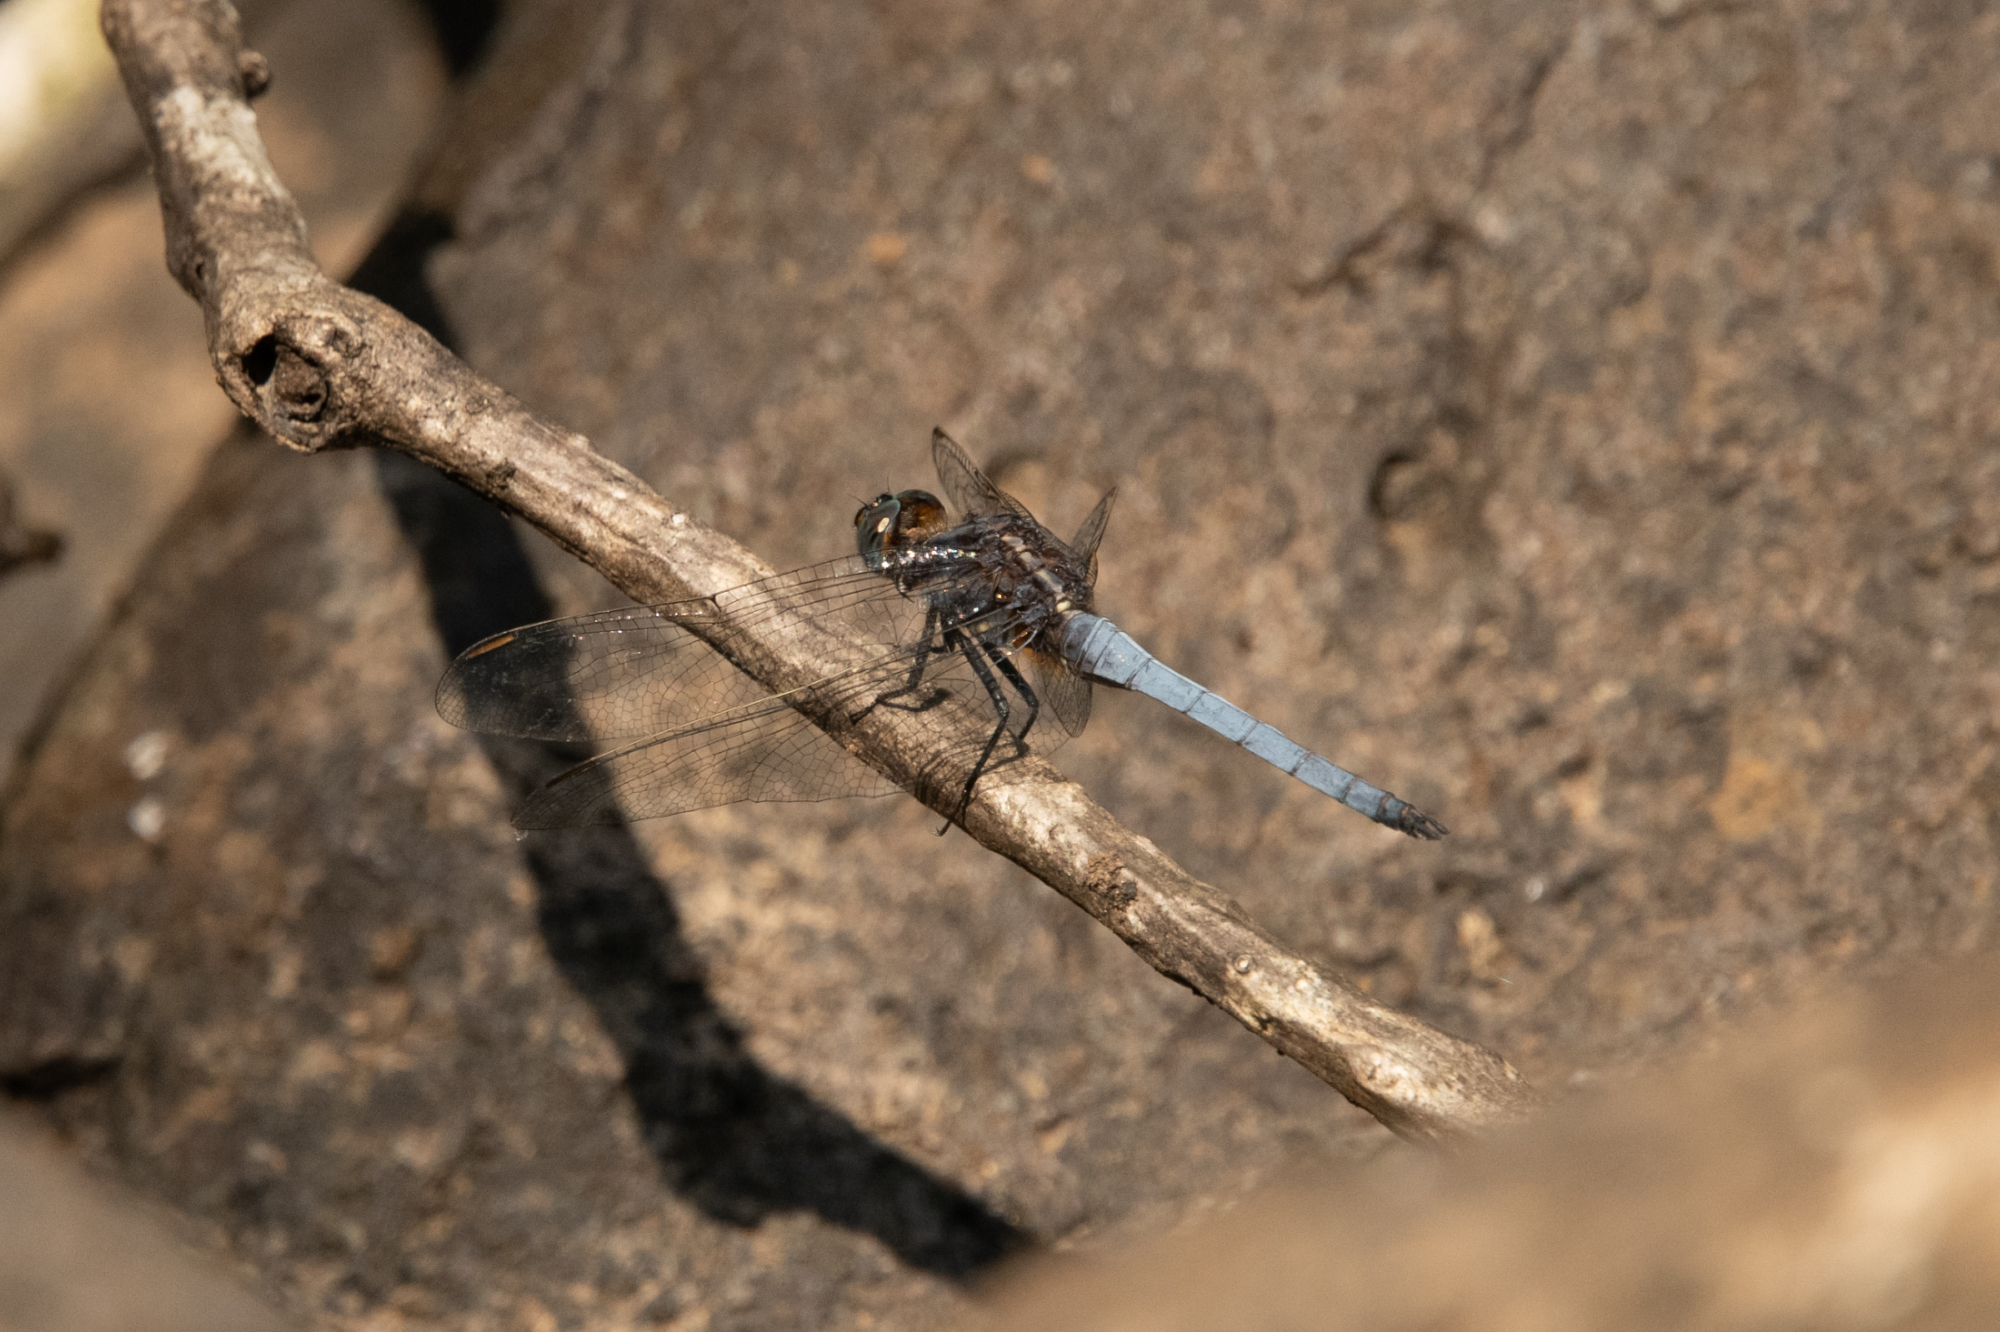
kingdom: Animalia
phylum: Arthropoda
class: Insecta
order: Odonata
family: Libellulidae
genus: Orthetrum
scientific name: Orthetrum glaucum
